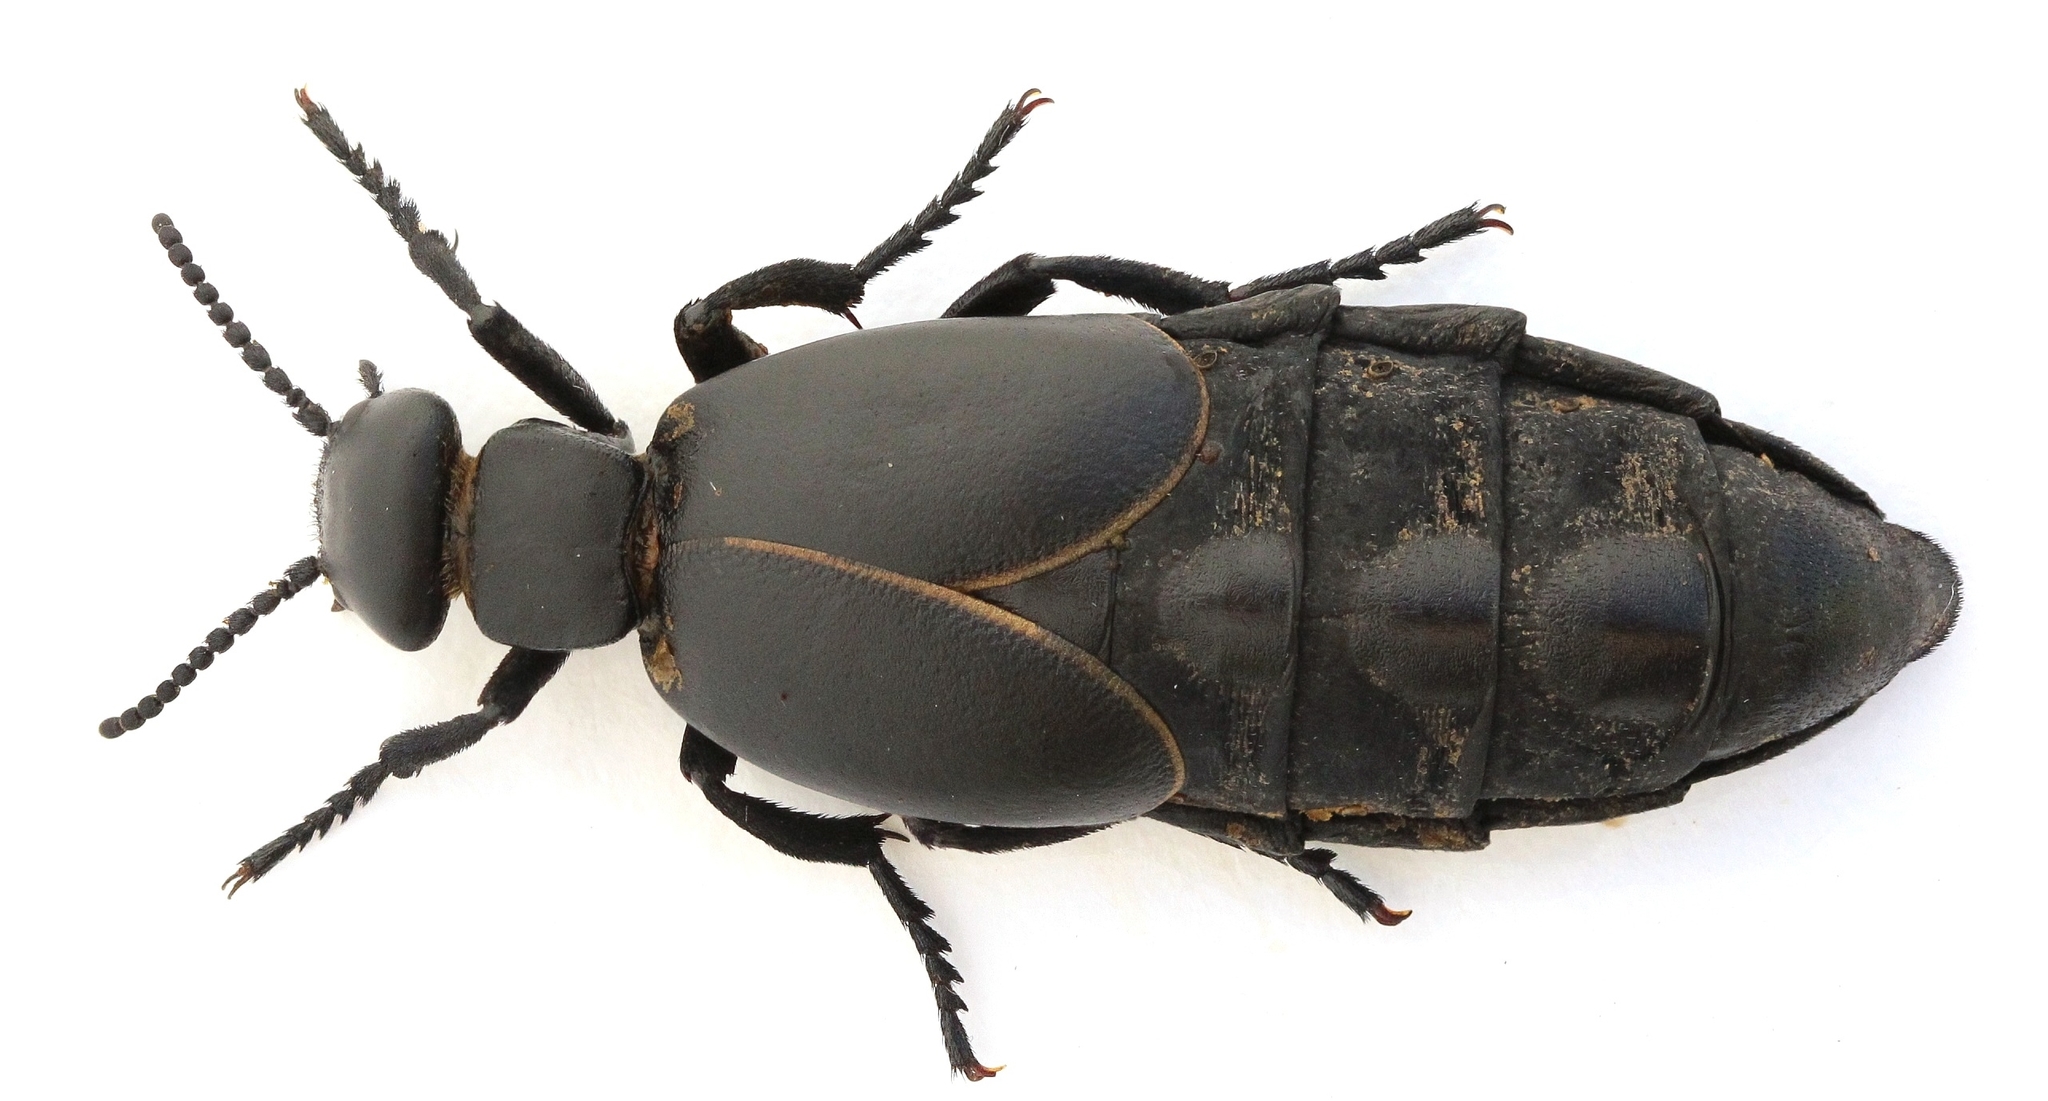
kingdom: Animalia
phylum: Arthropoda
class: Insecta
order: Coleoptera
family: Meloidae
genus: Meloe
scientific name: Meloe hungarus
